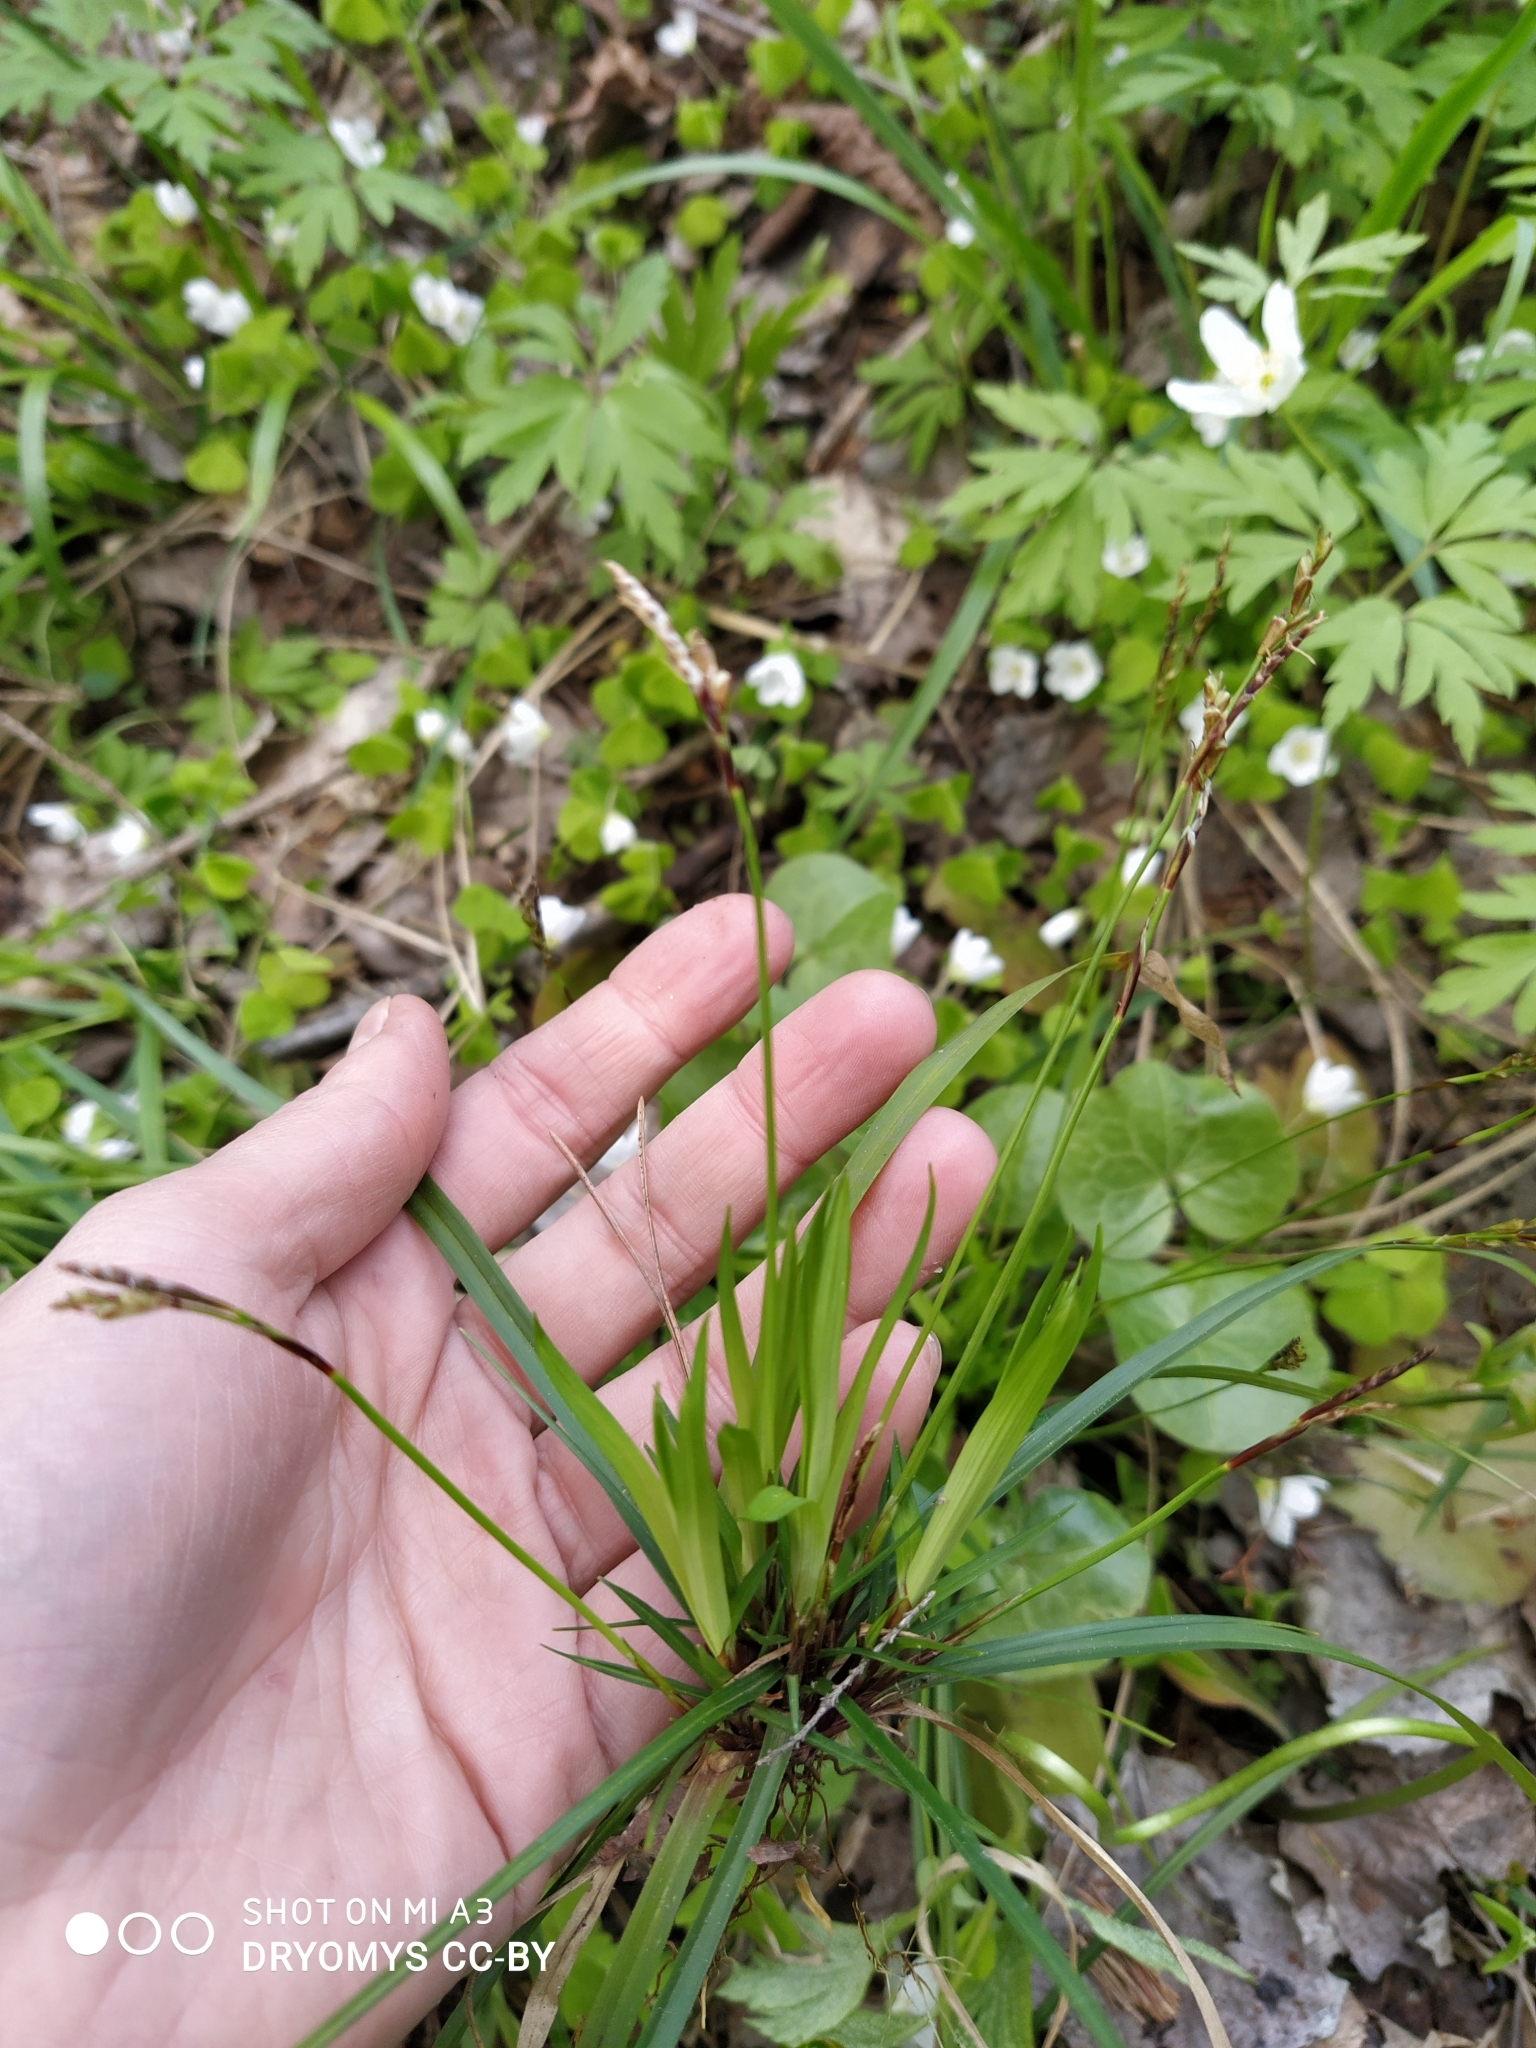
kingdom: Plantae
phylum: Tracheophyta
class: Liliopsida
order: Poales
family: Cyperaceae
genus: Carex
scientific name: Carex digitata
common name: Fingered sedge
